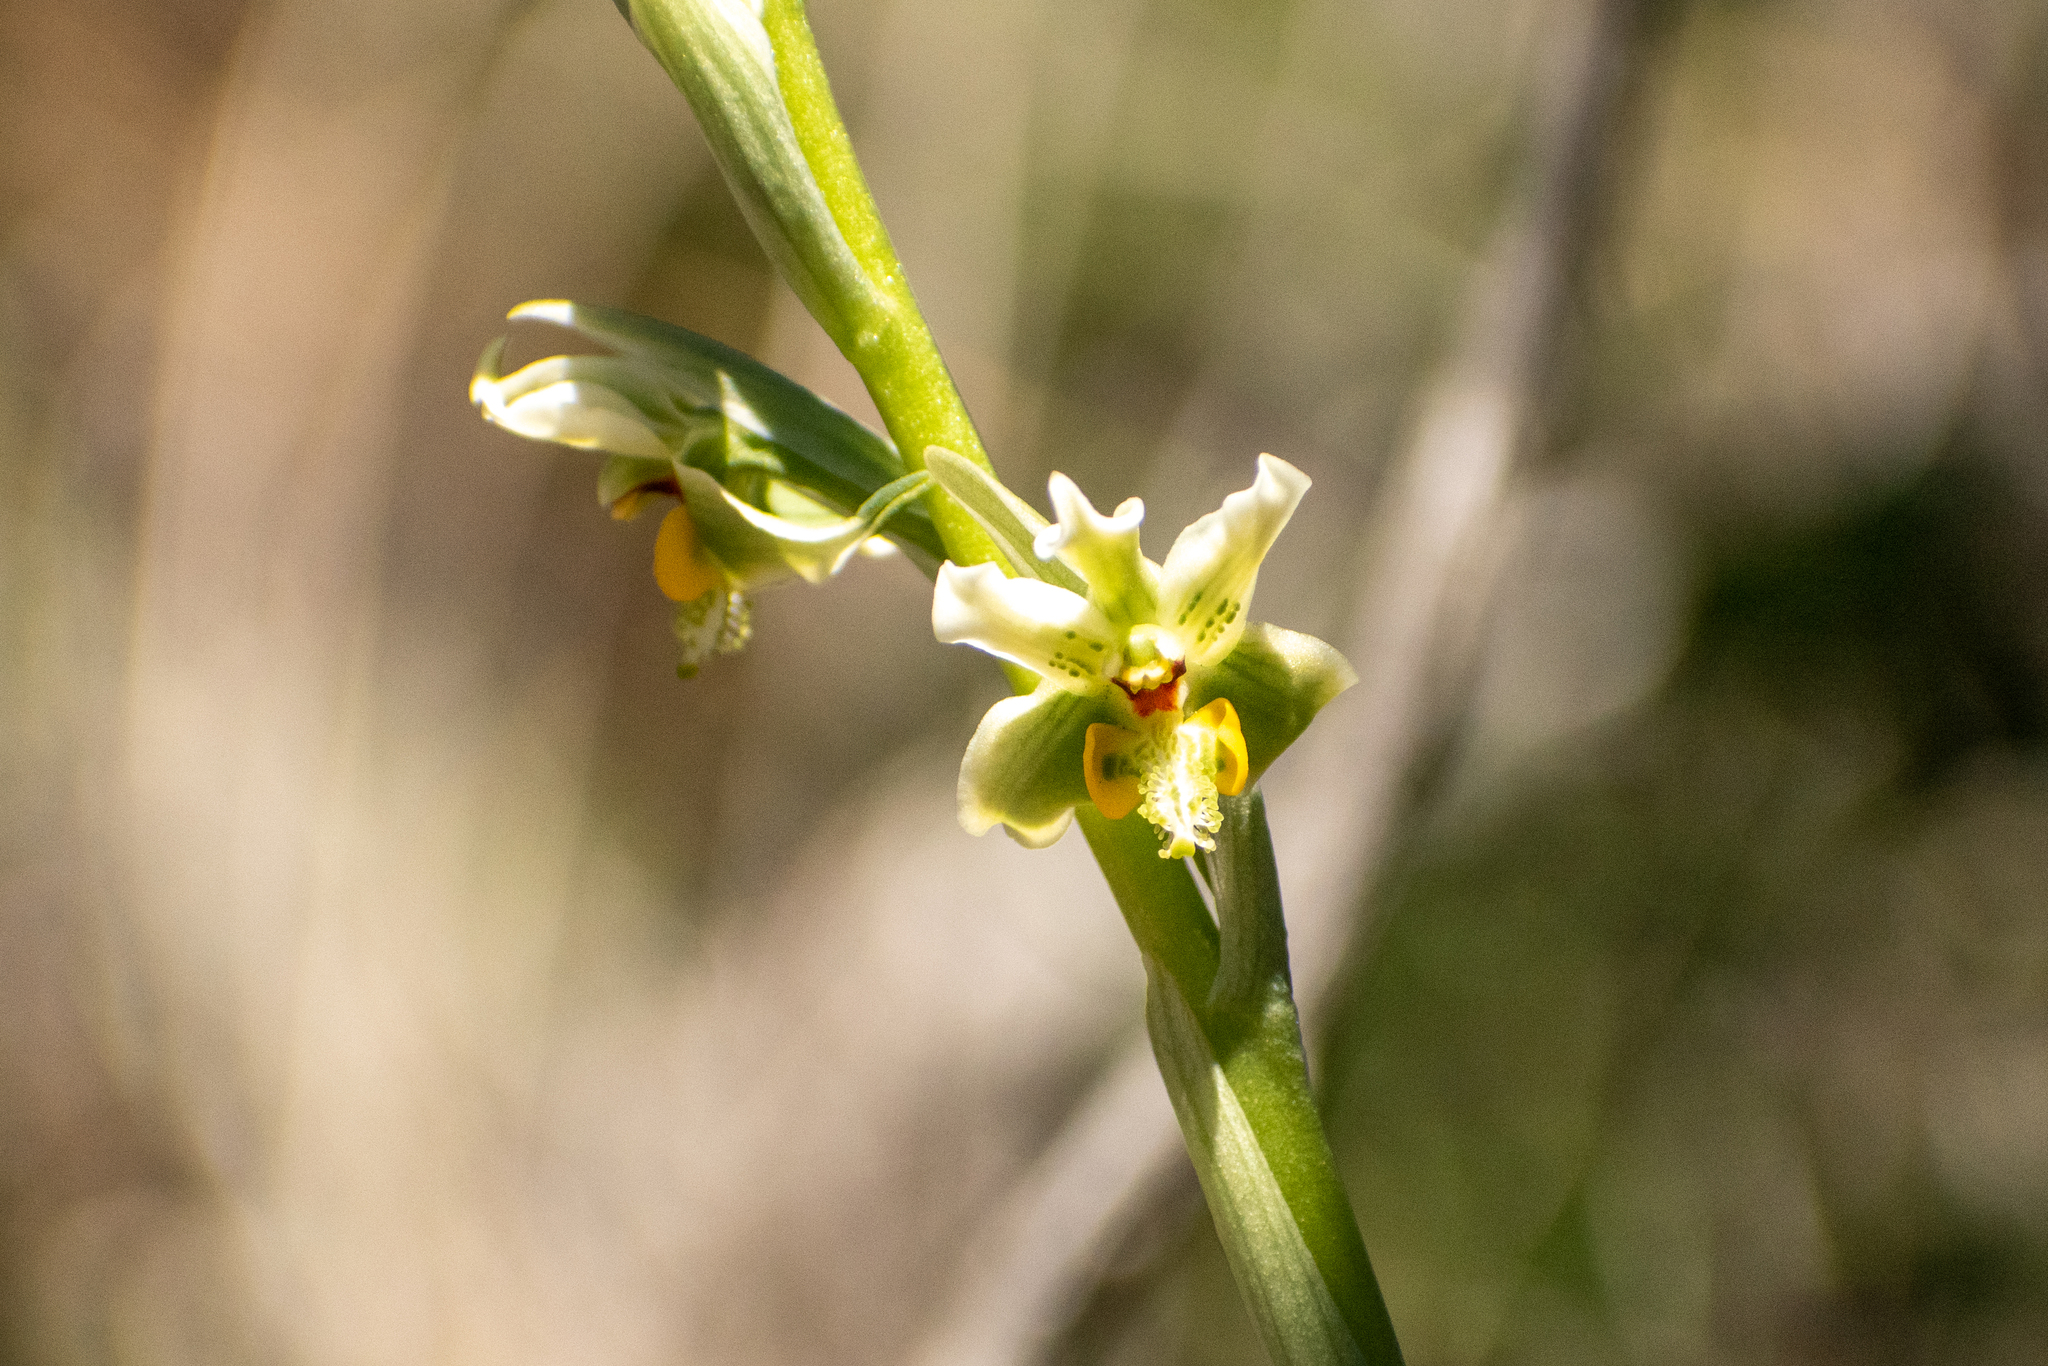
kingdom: Plantae
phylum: Tracheophyta
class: Liliopsida
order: Asparagales
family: Orchidaceae
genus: Gavilea
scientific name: Gavilea glandulifera
